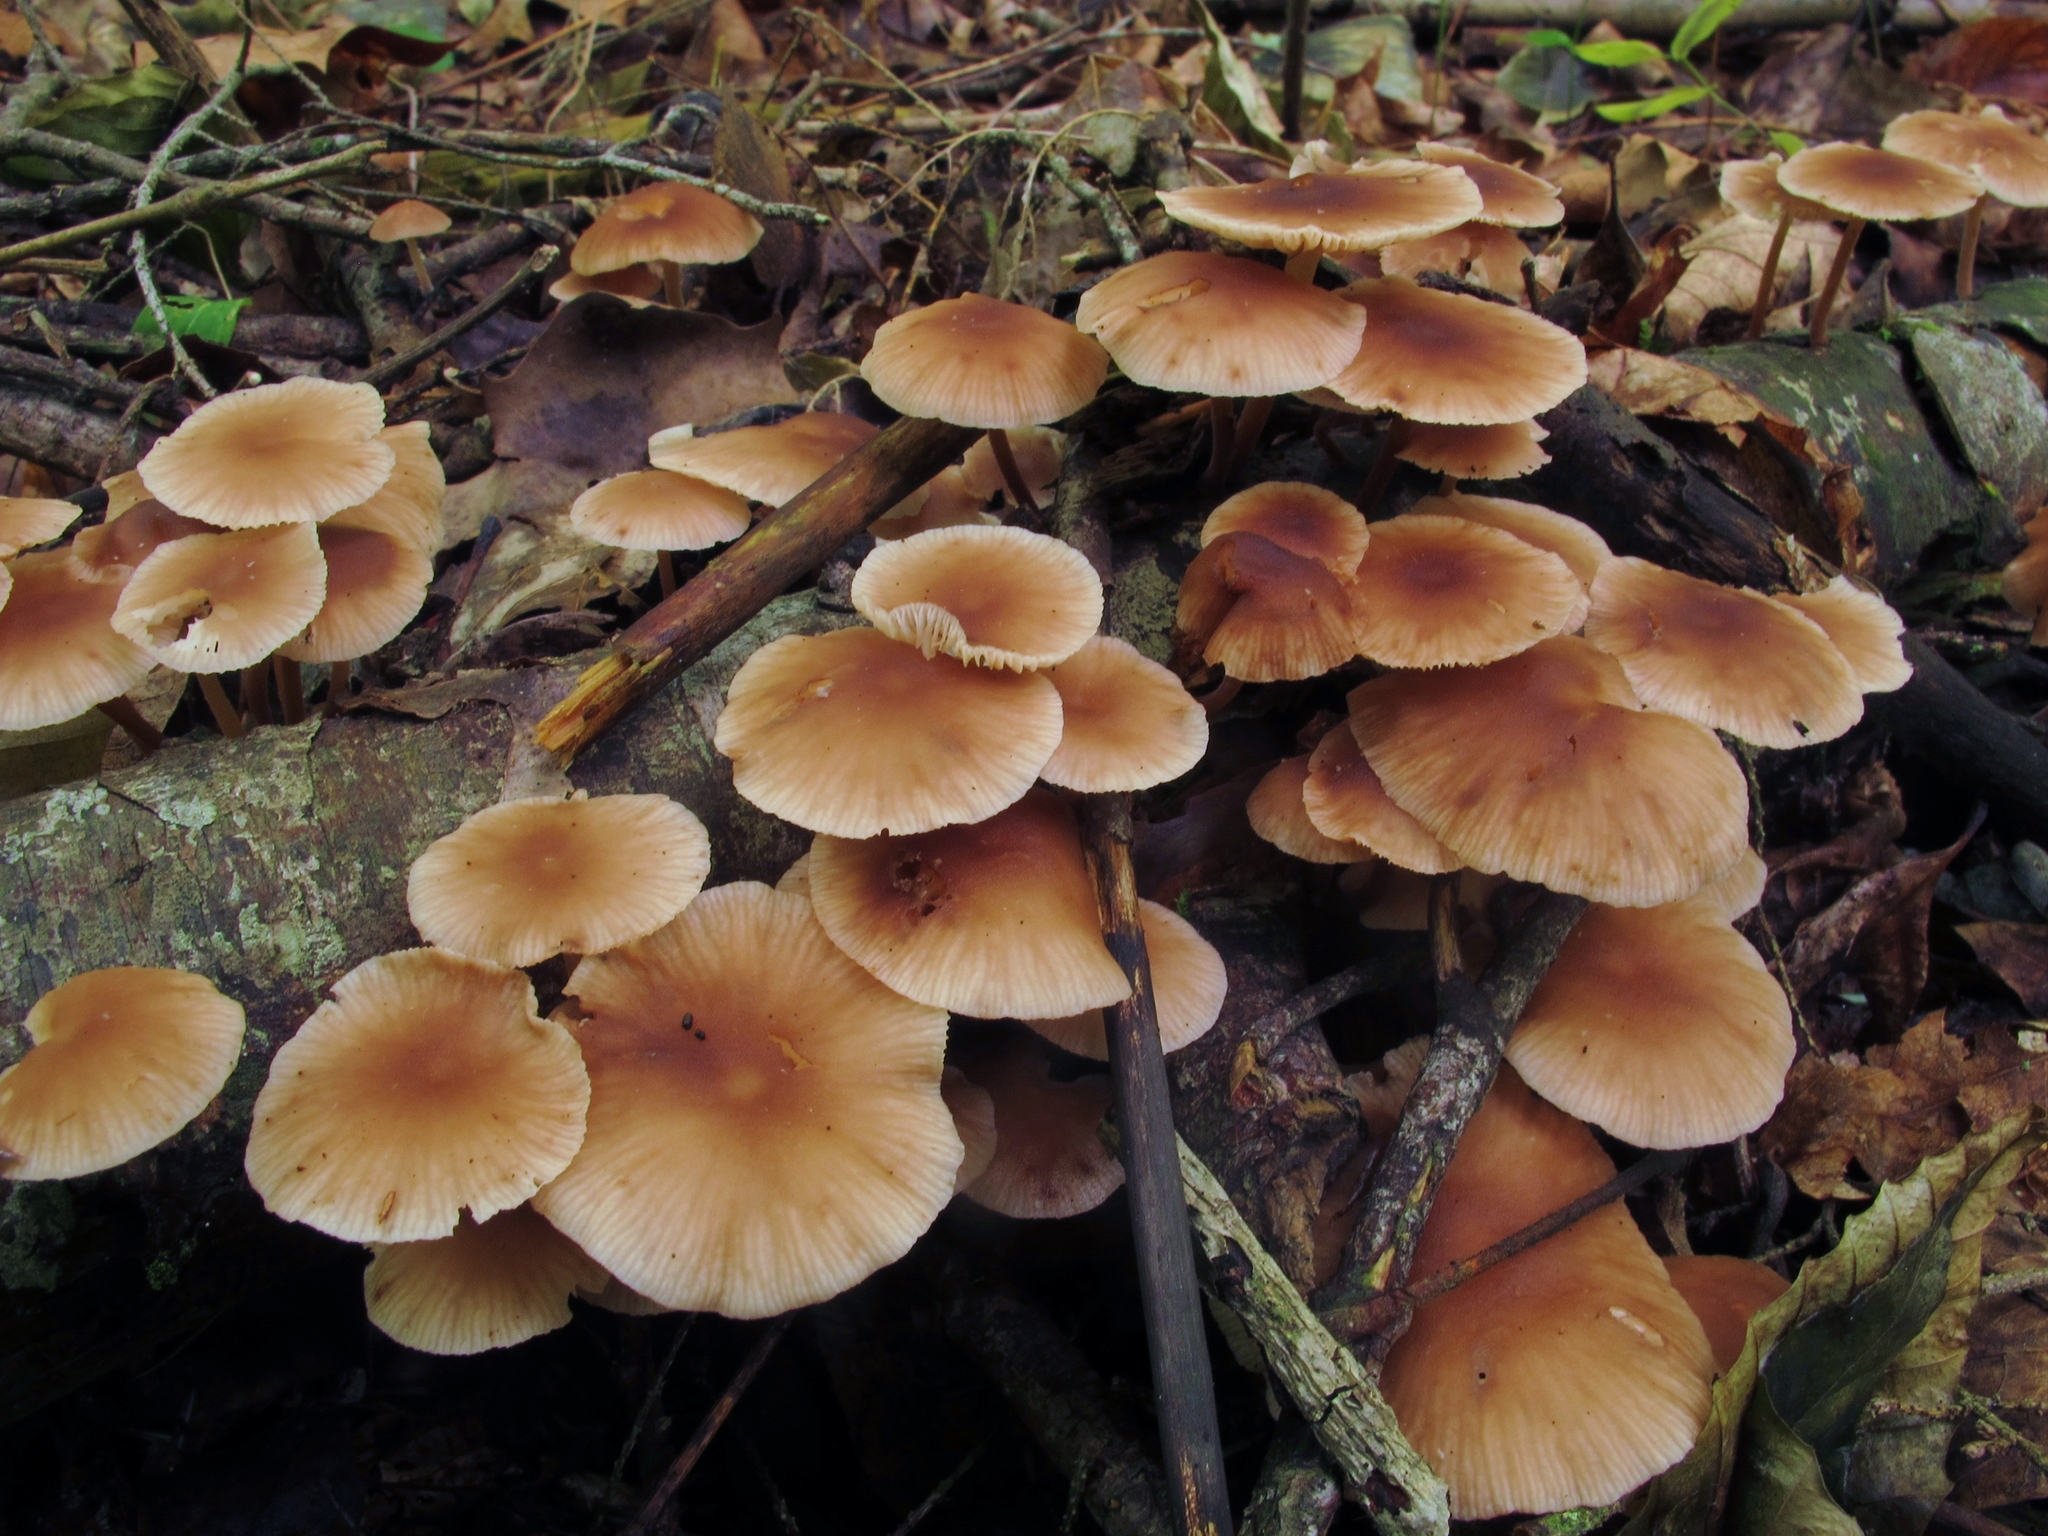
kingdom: Fungi
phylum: Basidiomycota
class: Agaricomycetes
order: Agaricales
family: Omphalotaceae
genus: Collybiopsis
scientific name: Collybiopsis dichroa
